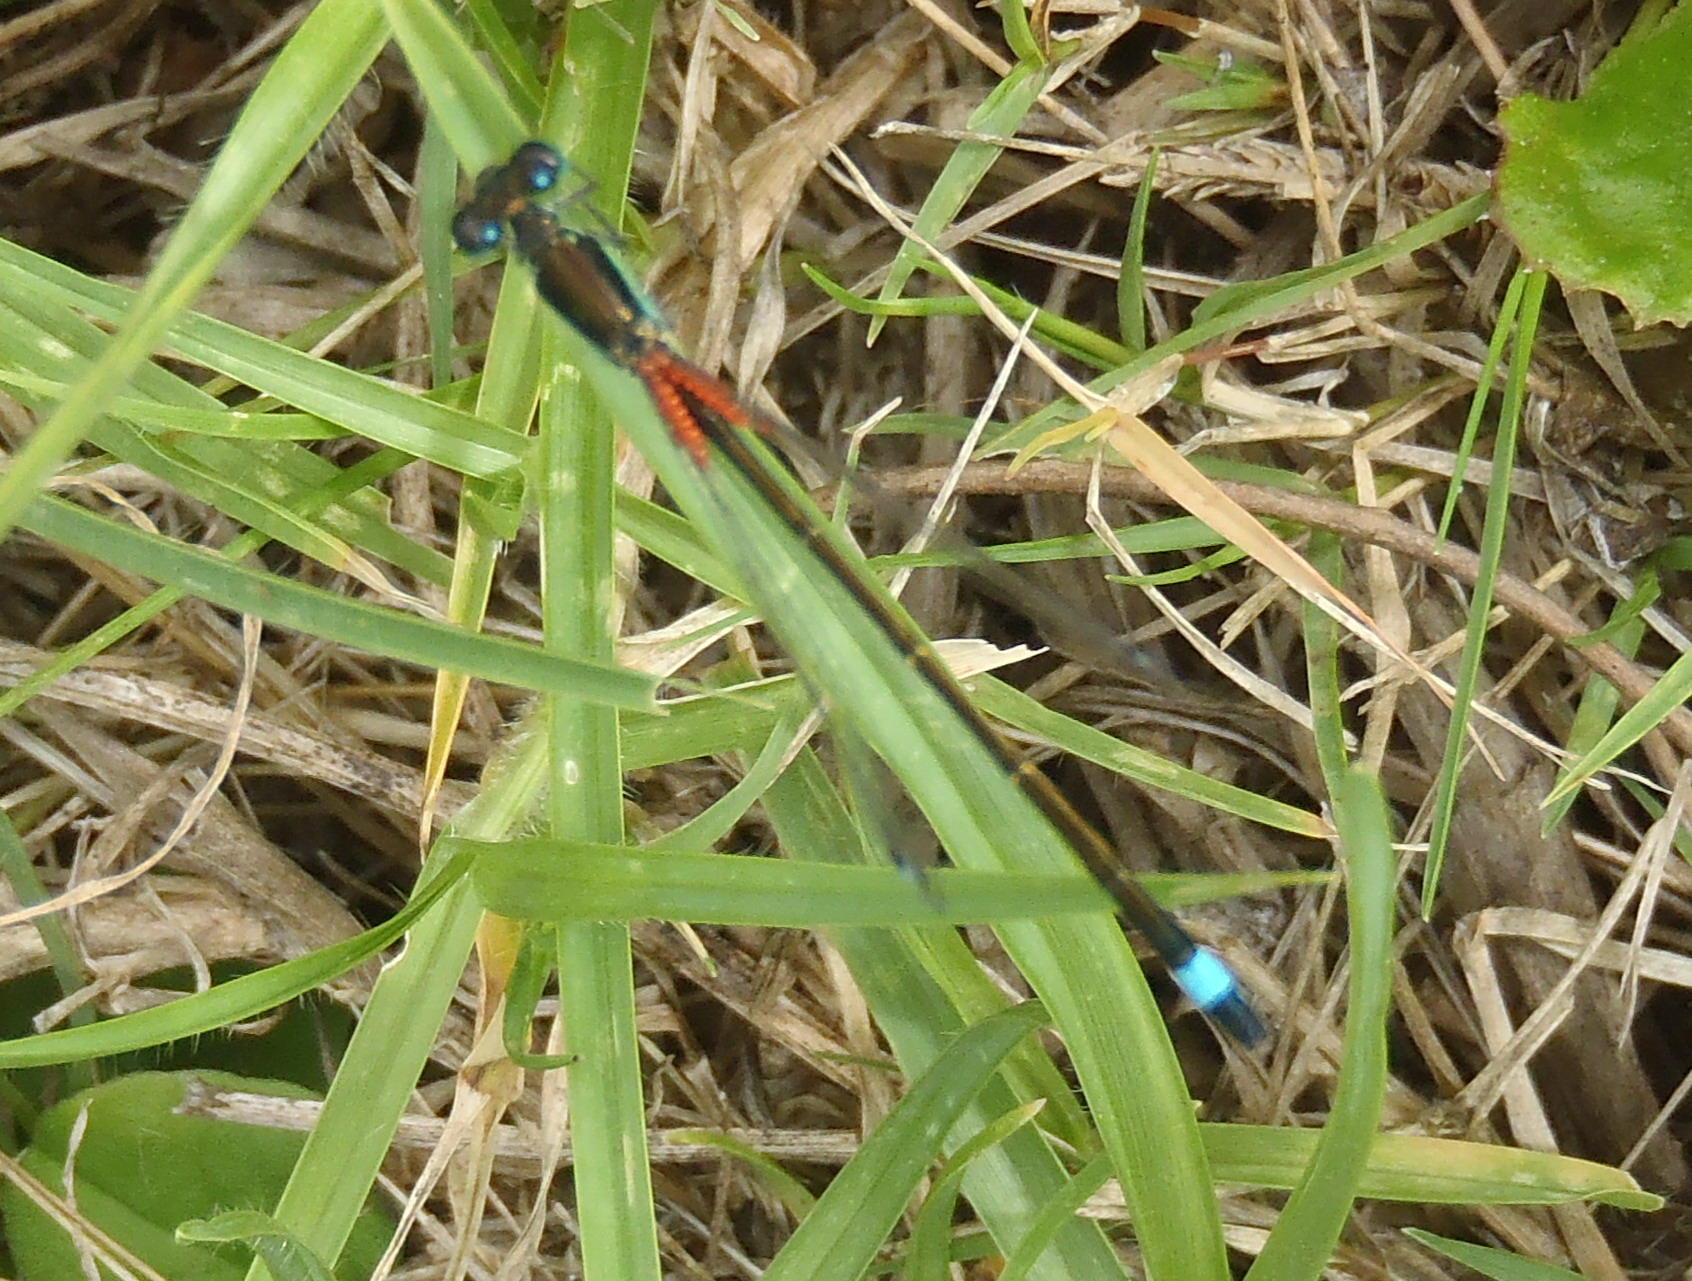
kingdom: Animalia
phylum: Arthropoda
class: Insecta
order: Odonata
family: Coenagrionidae
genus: Ischnura
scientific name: Ischnura senegalensis
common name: Tropical bluetail
